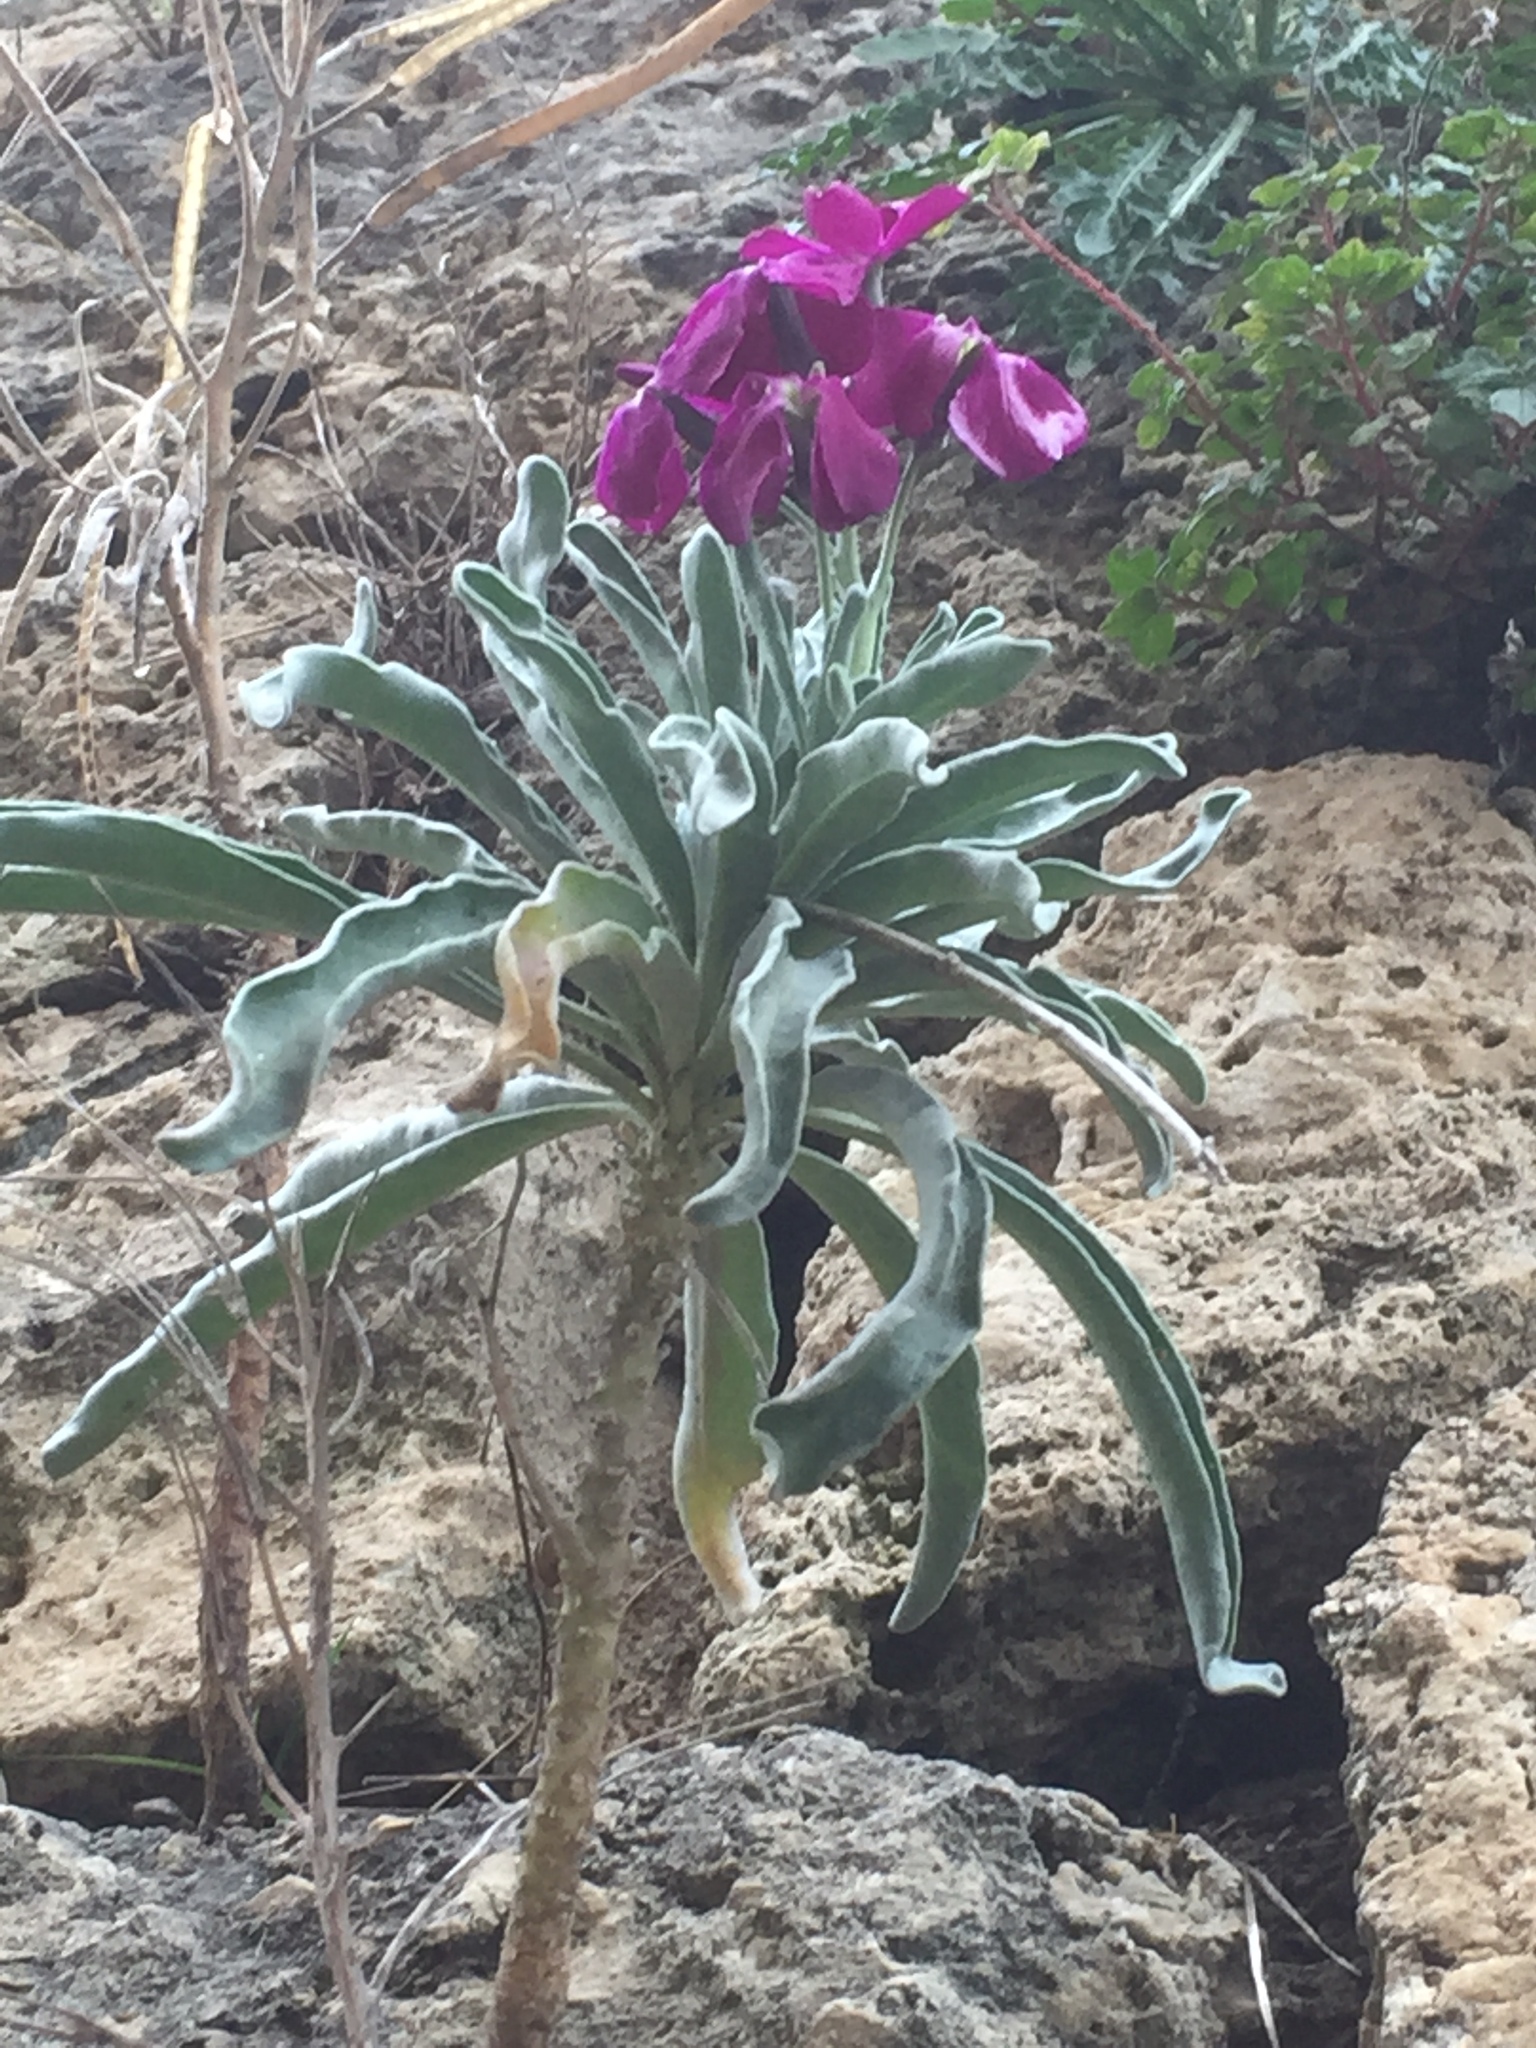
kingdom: Plantae
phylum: Tracheophyta
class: Magnoliopsida
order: Brassicales
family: Brassicaceae
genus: Matthiola
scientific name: Matthiola incana
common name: Hoary stock
